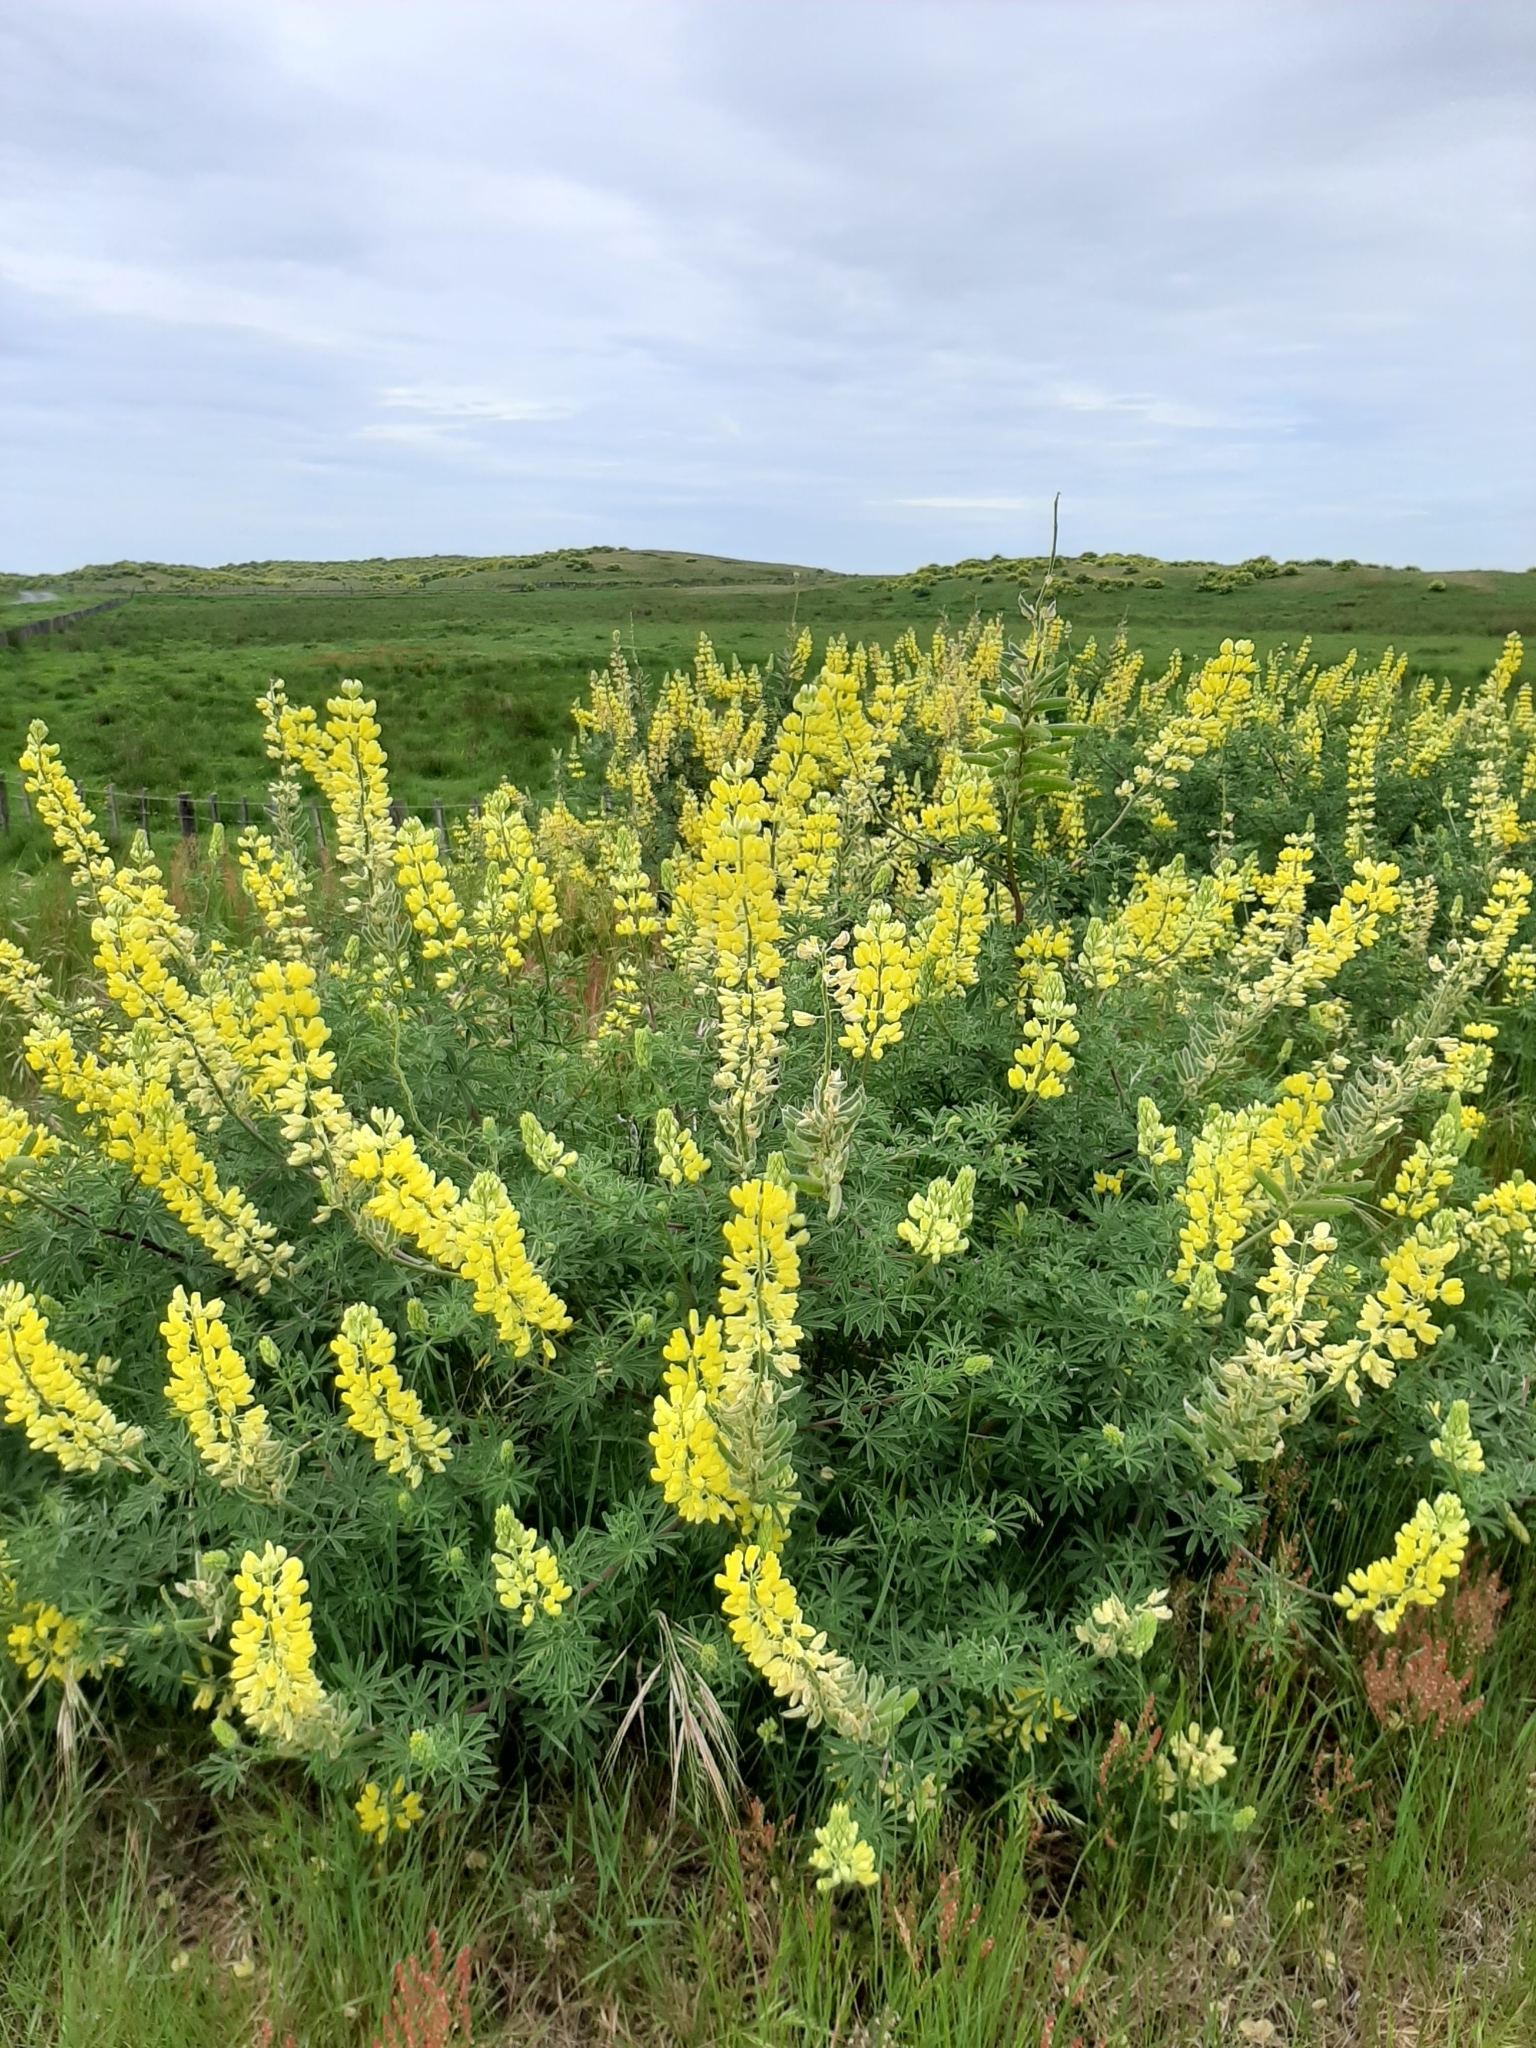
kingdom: Plantae
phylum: Tracheophyta
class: Magnoliopsida
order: Fabales
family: Fabaceae
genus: Lupinus
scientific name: Lupinus arboreus
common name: Yellow bush lupine
